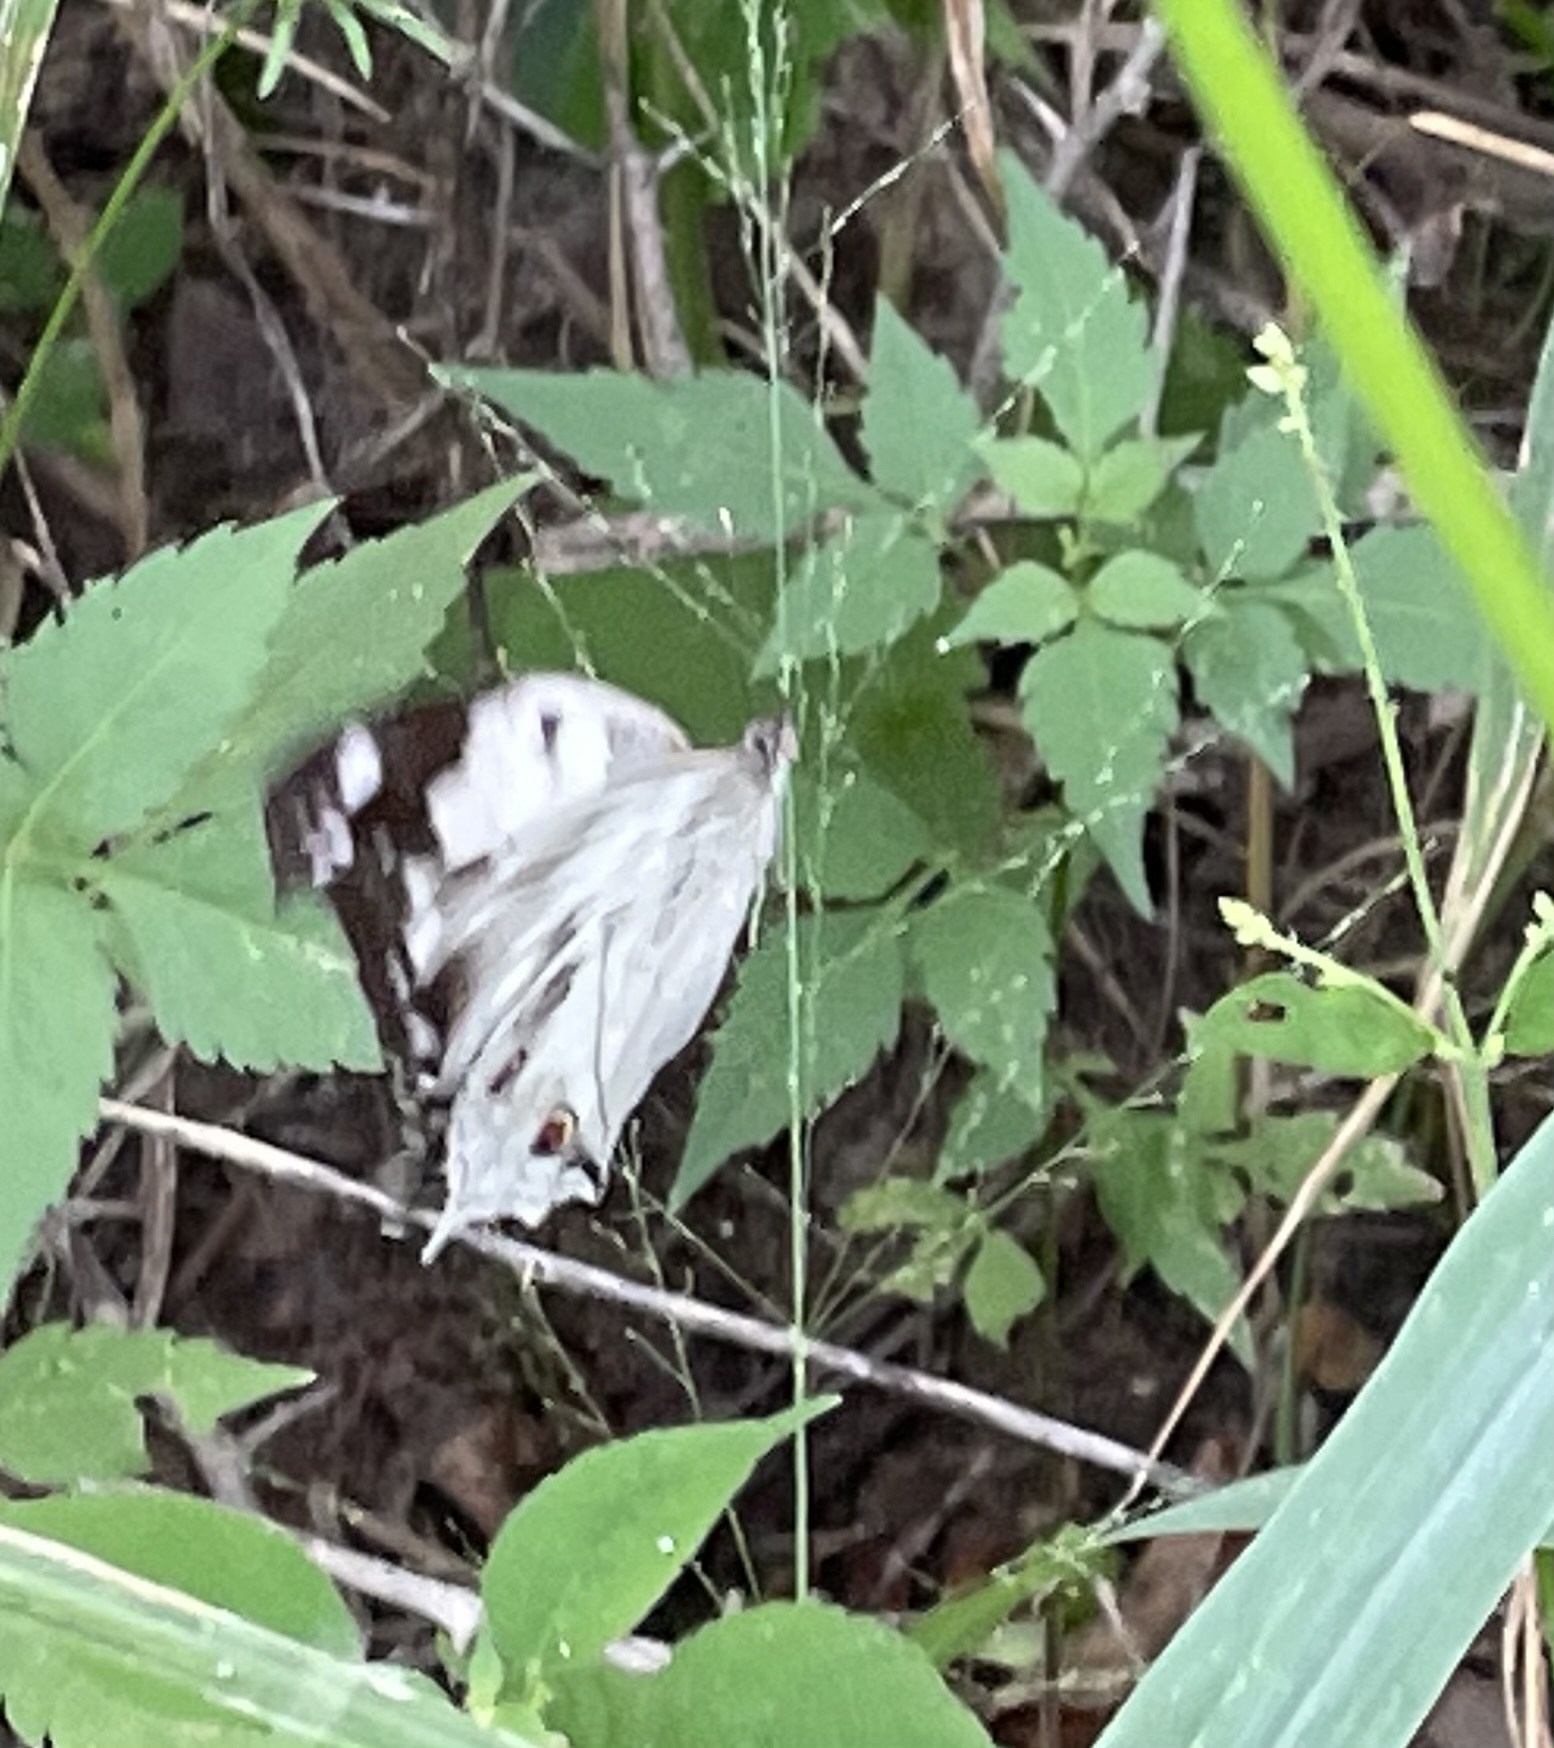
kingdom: Animalia
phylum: Arthropoda
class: Insecta
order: Lepidoptera
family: Nymphalidae
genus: Salamis
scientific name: Salamis
